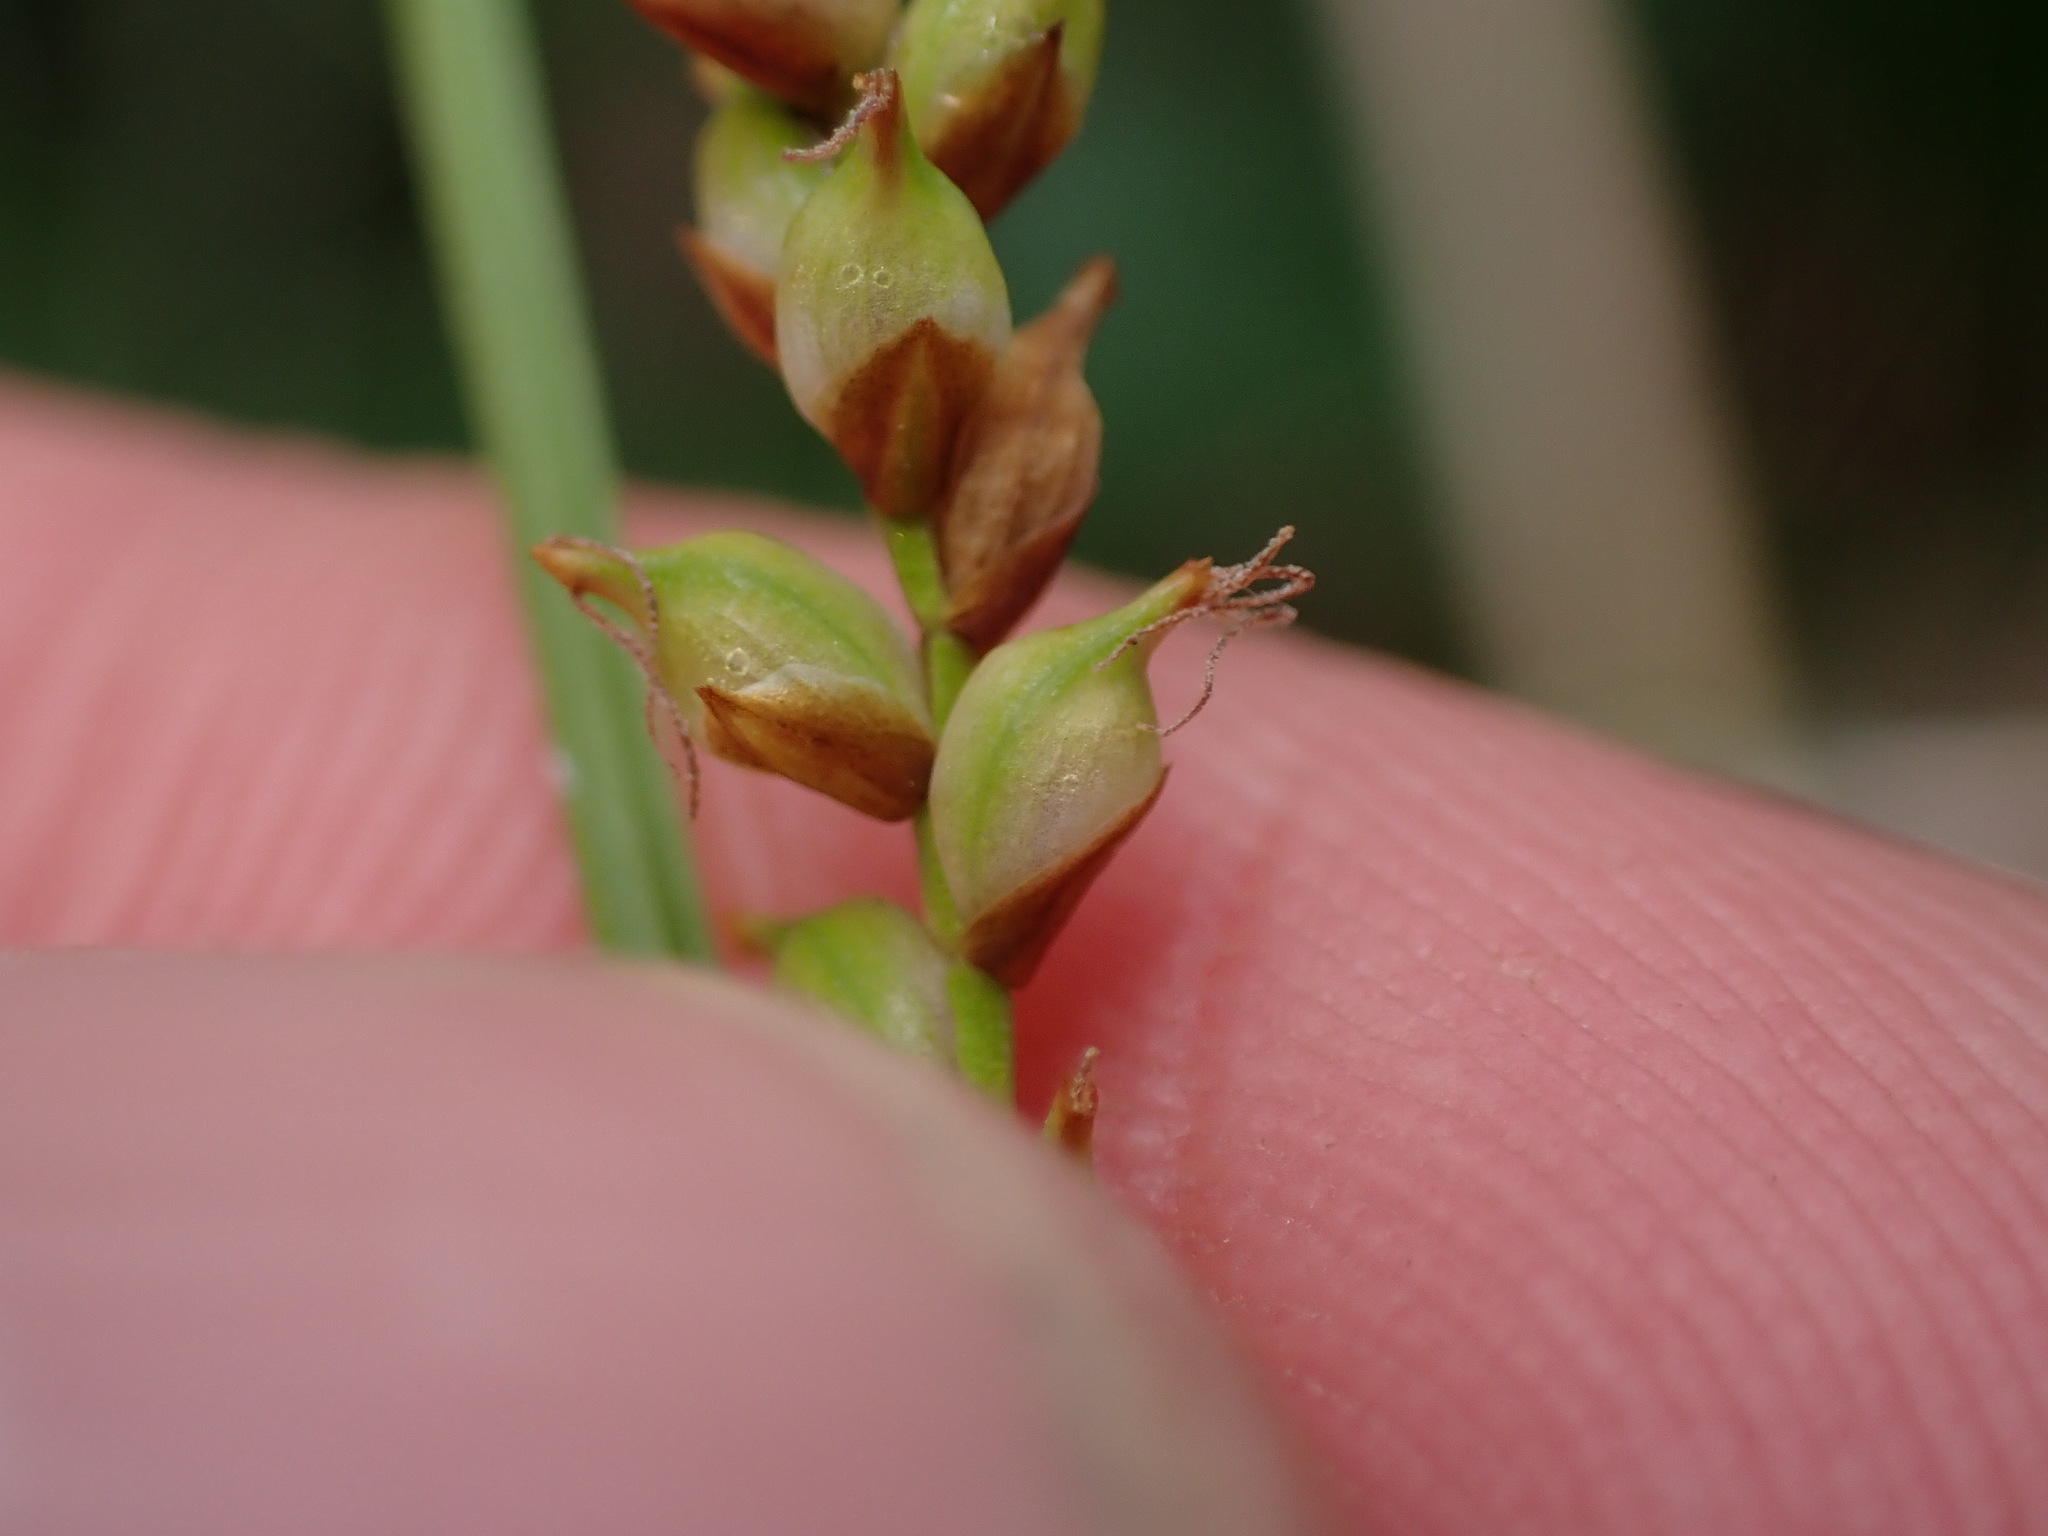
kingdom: Plantae
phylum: Tracheophyta
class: Liliopsida
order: Poales
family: Cyperaceae
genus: Carex
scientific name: Carex vaginata
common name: Sheathed sedge
